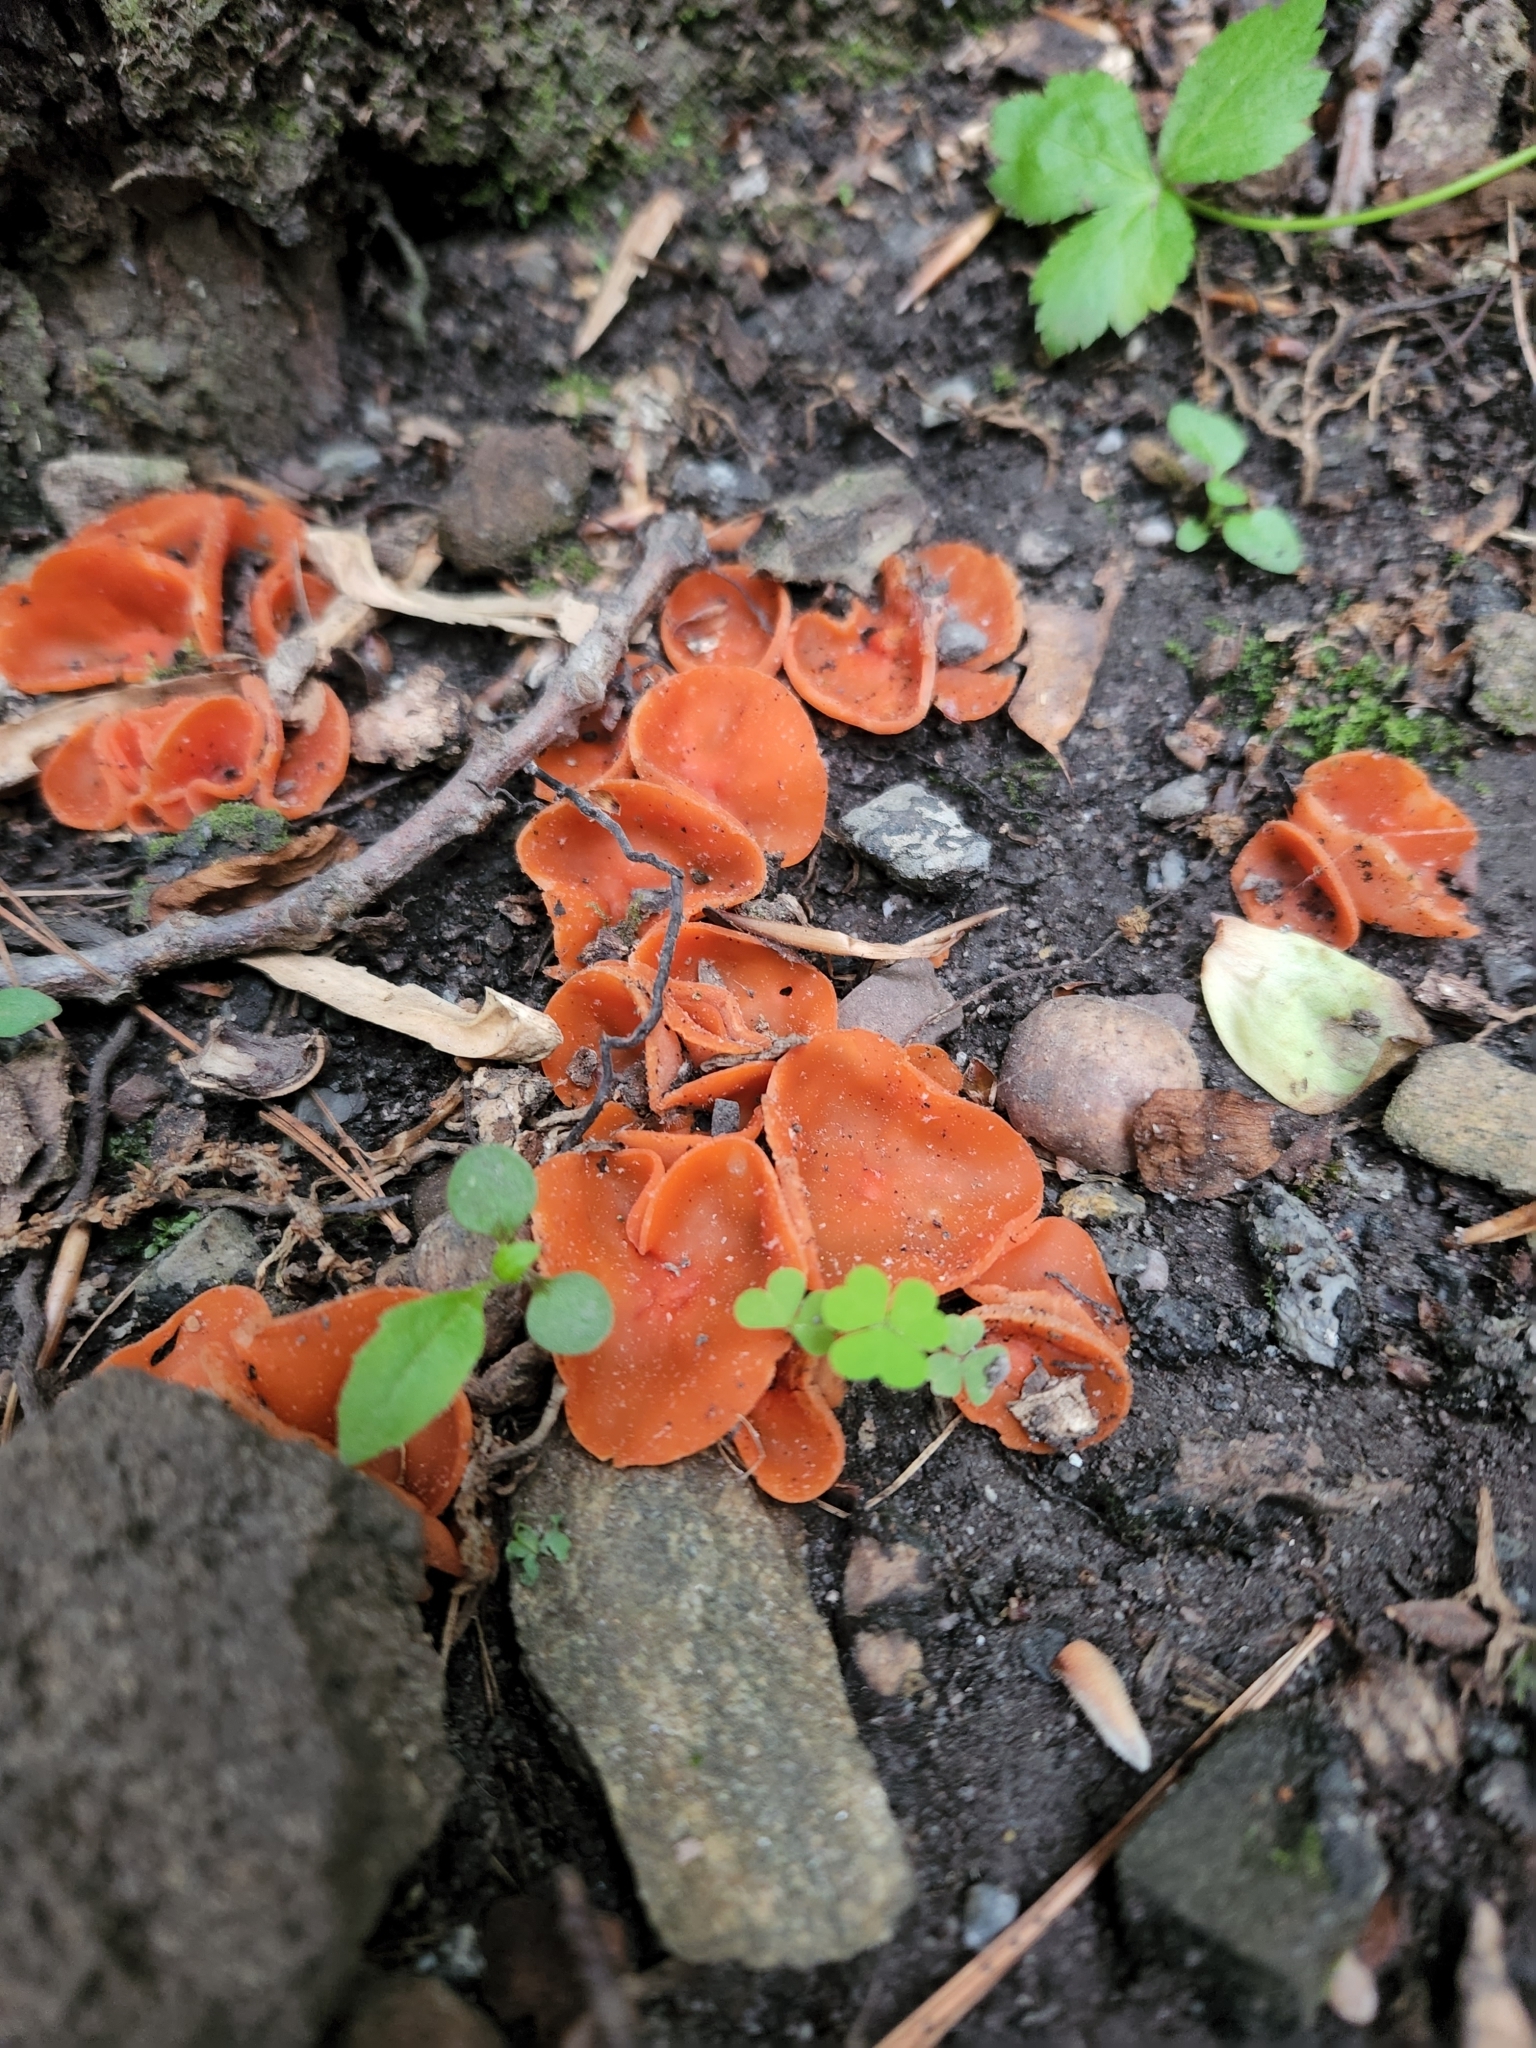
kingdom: Fungi
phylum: Ascomycota
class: Pezizomycetes
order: Pezizales
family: Pyronemataceae
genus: Aleuria
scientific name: Aleuria aurantia
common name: Orange peel fungus
